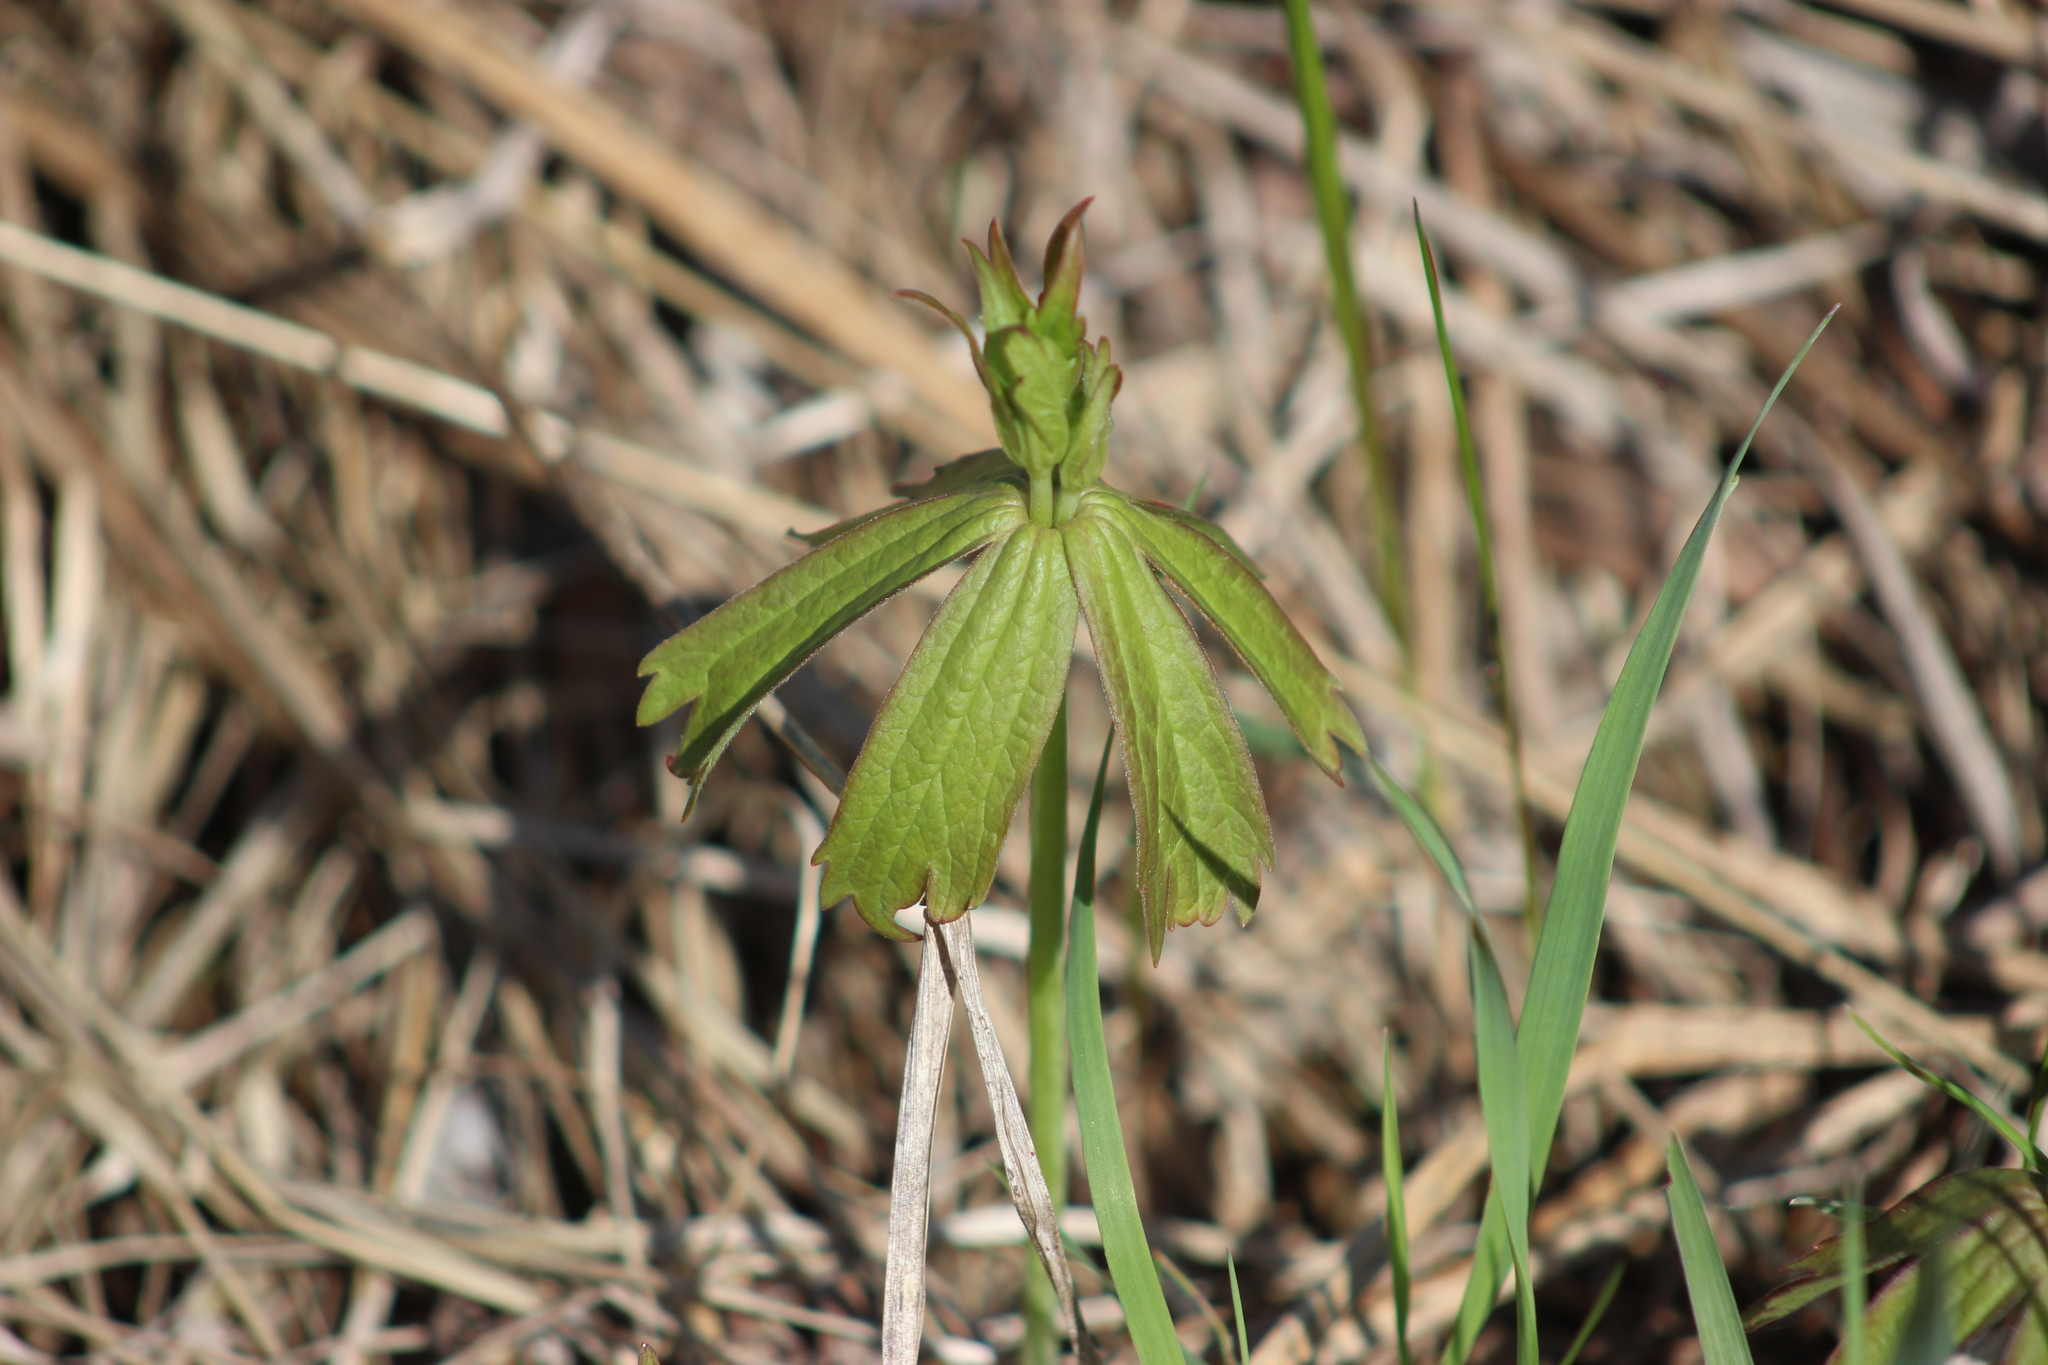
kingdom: Plantae
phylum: Tracheophyta
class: Magnoliopsida
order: Ranunculales
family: Ranunculaceae
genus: Anemonastrum
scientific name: Anemonastrum dichotomum
